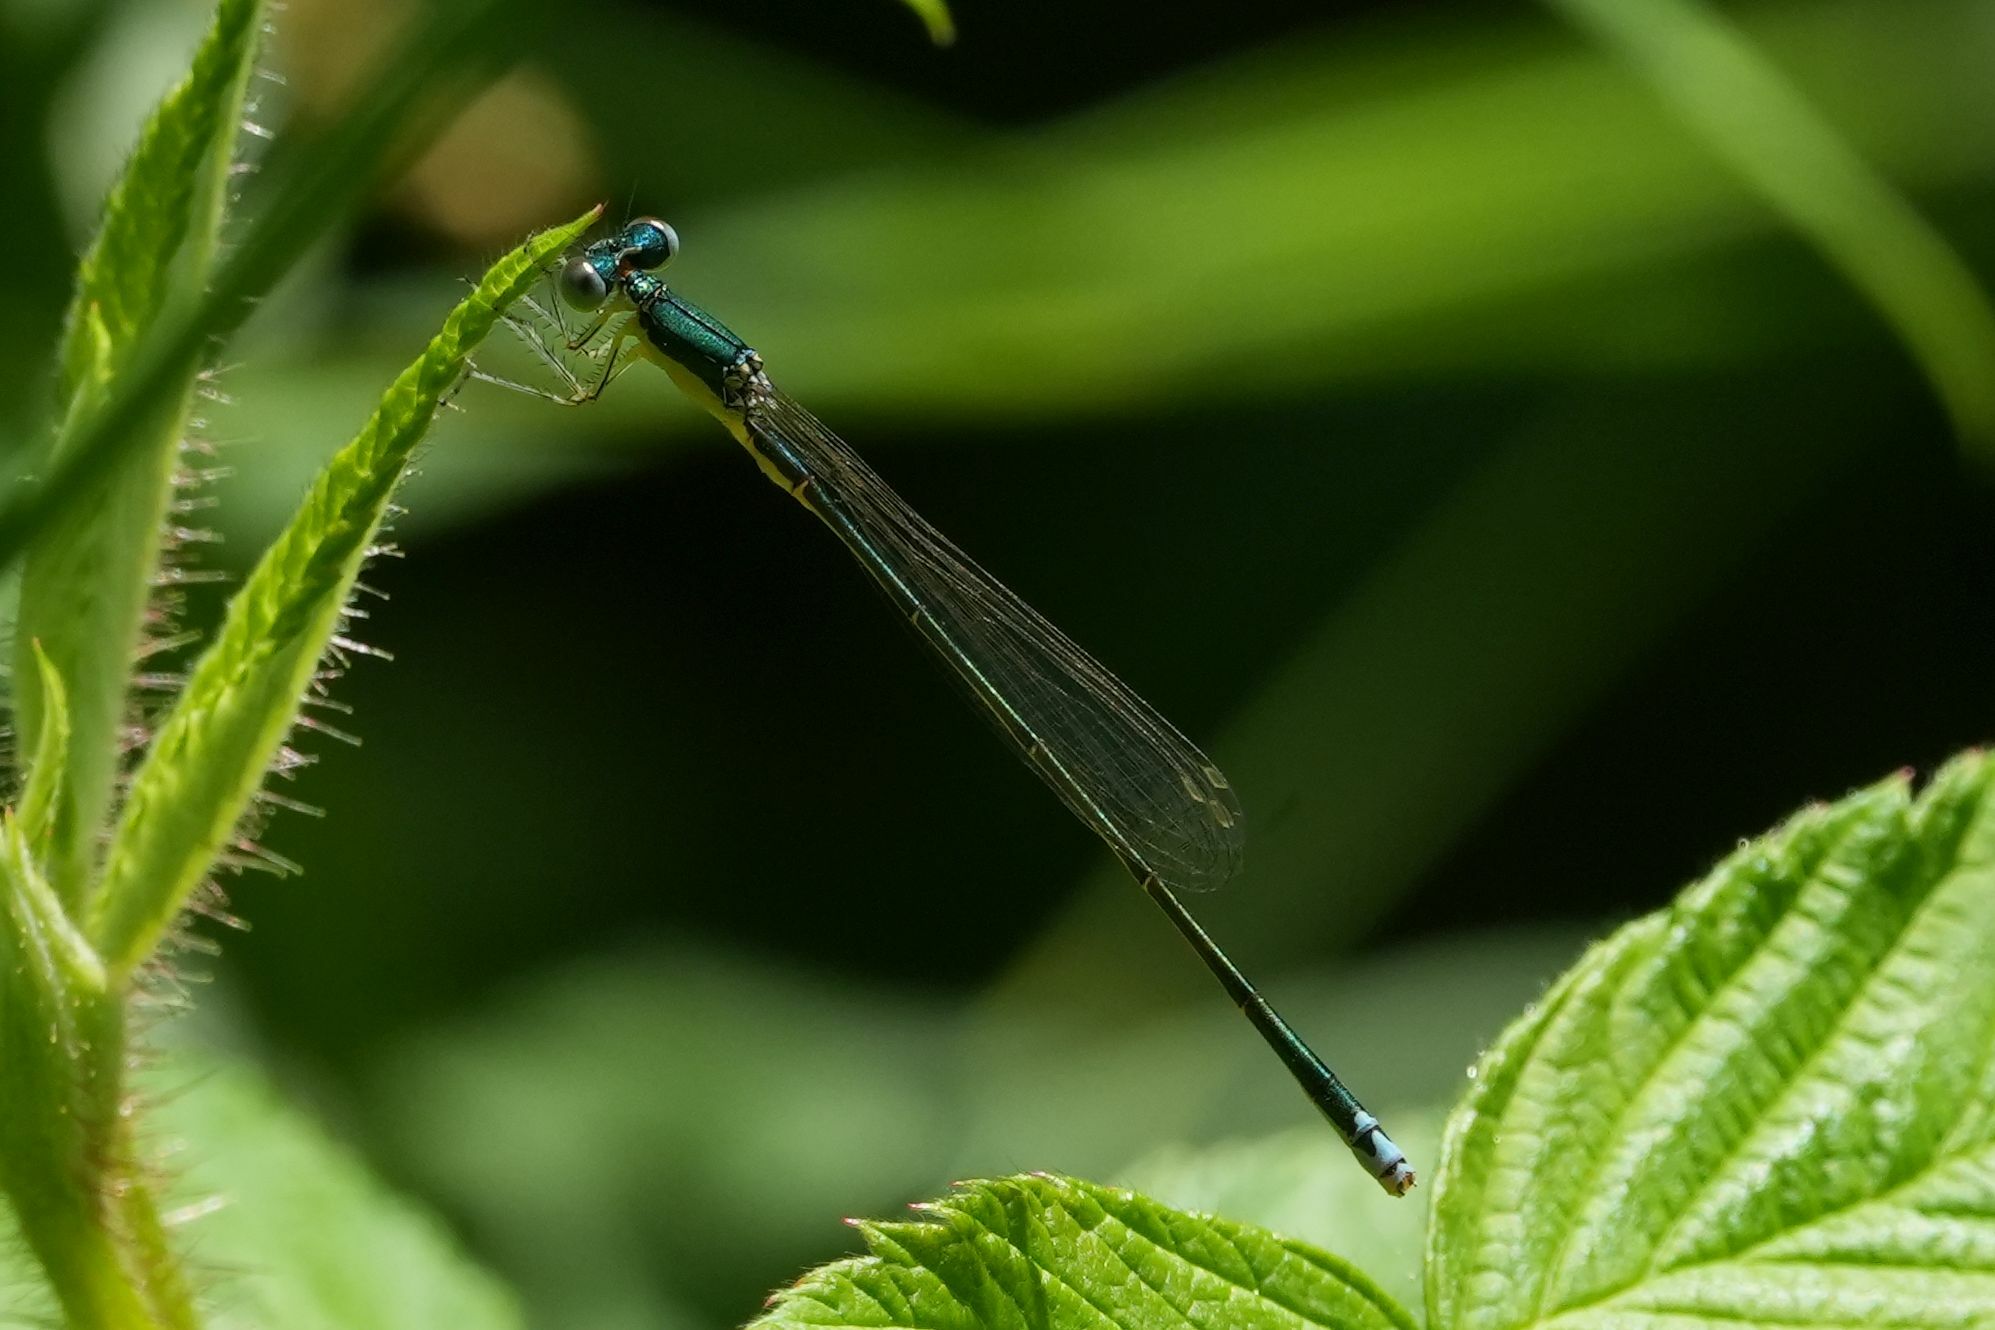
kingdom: Animalia
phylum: Arthropoda
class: Insecta
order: Odonata
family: Coenagrionidae
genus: Nehalennia
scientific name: Nehalennia irene
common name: Sedge sprite
